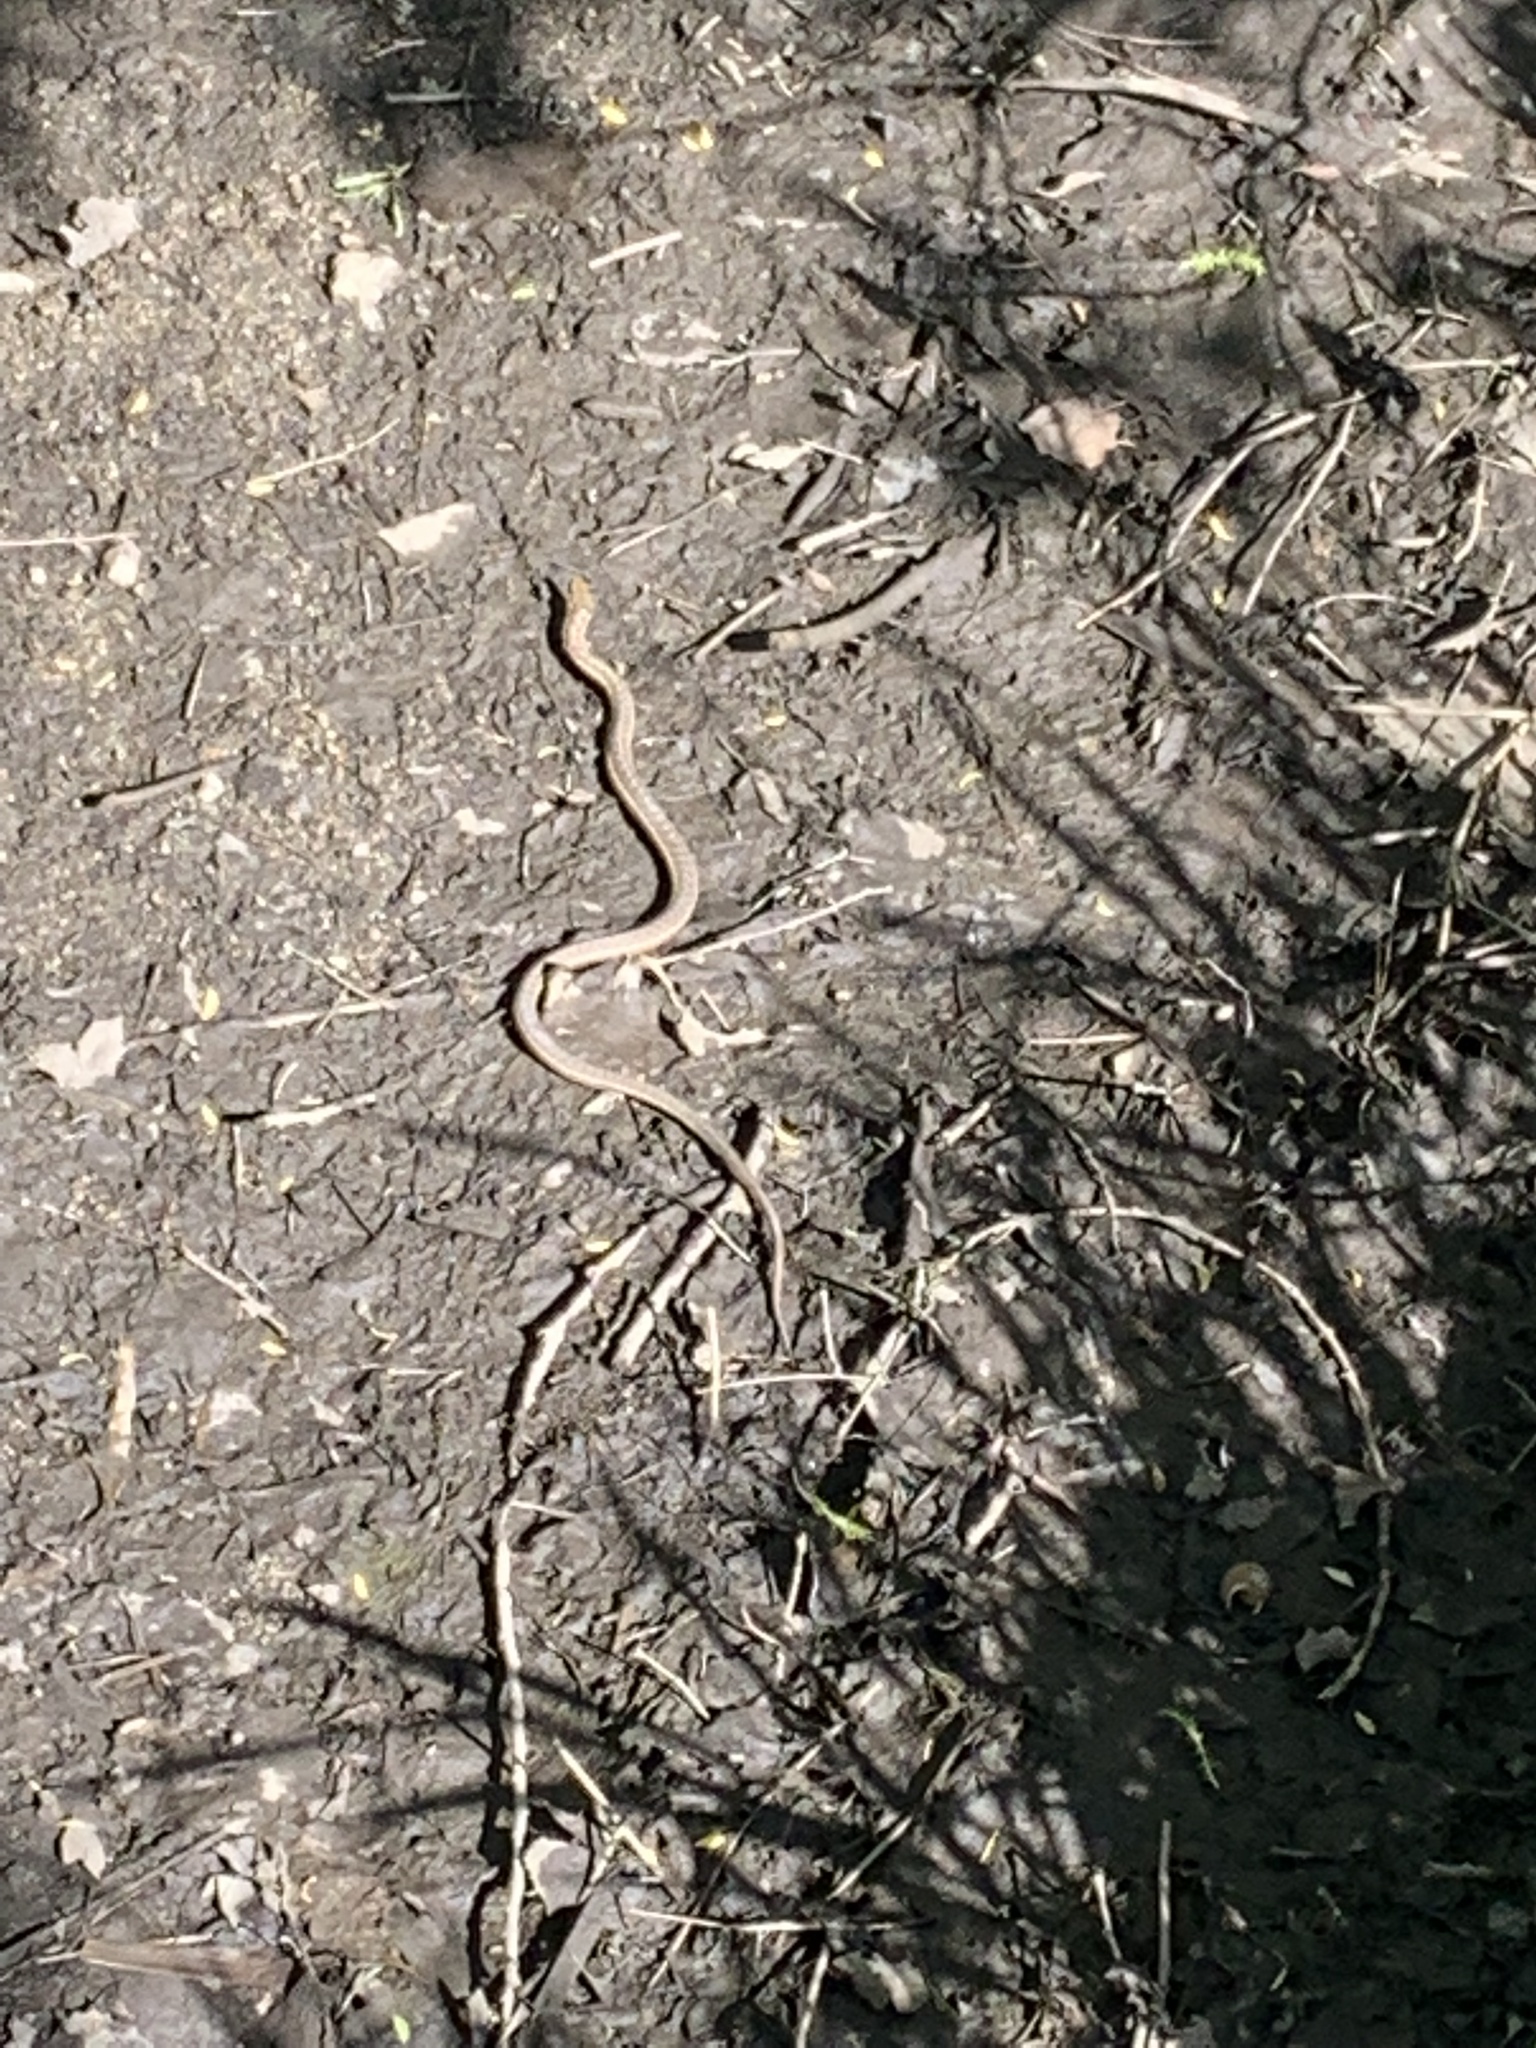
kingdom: Animalia
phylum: Chordata
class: Squamata
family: Colubridae
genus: Thamnophis
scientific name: Thamnophis elegans
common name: Western terrestrial garter snake
